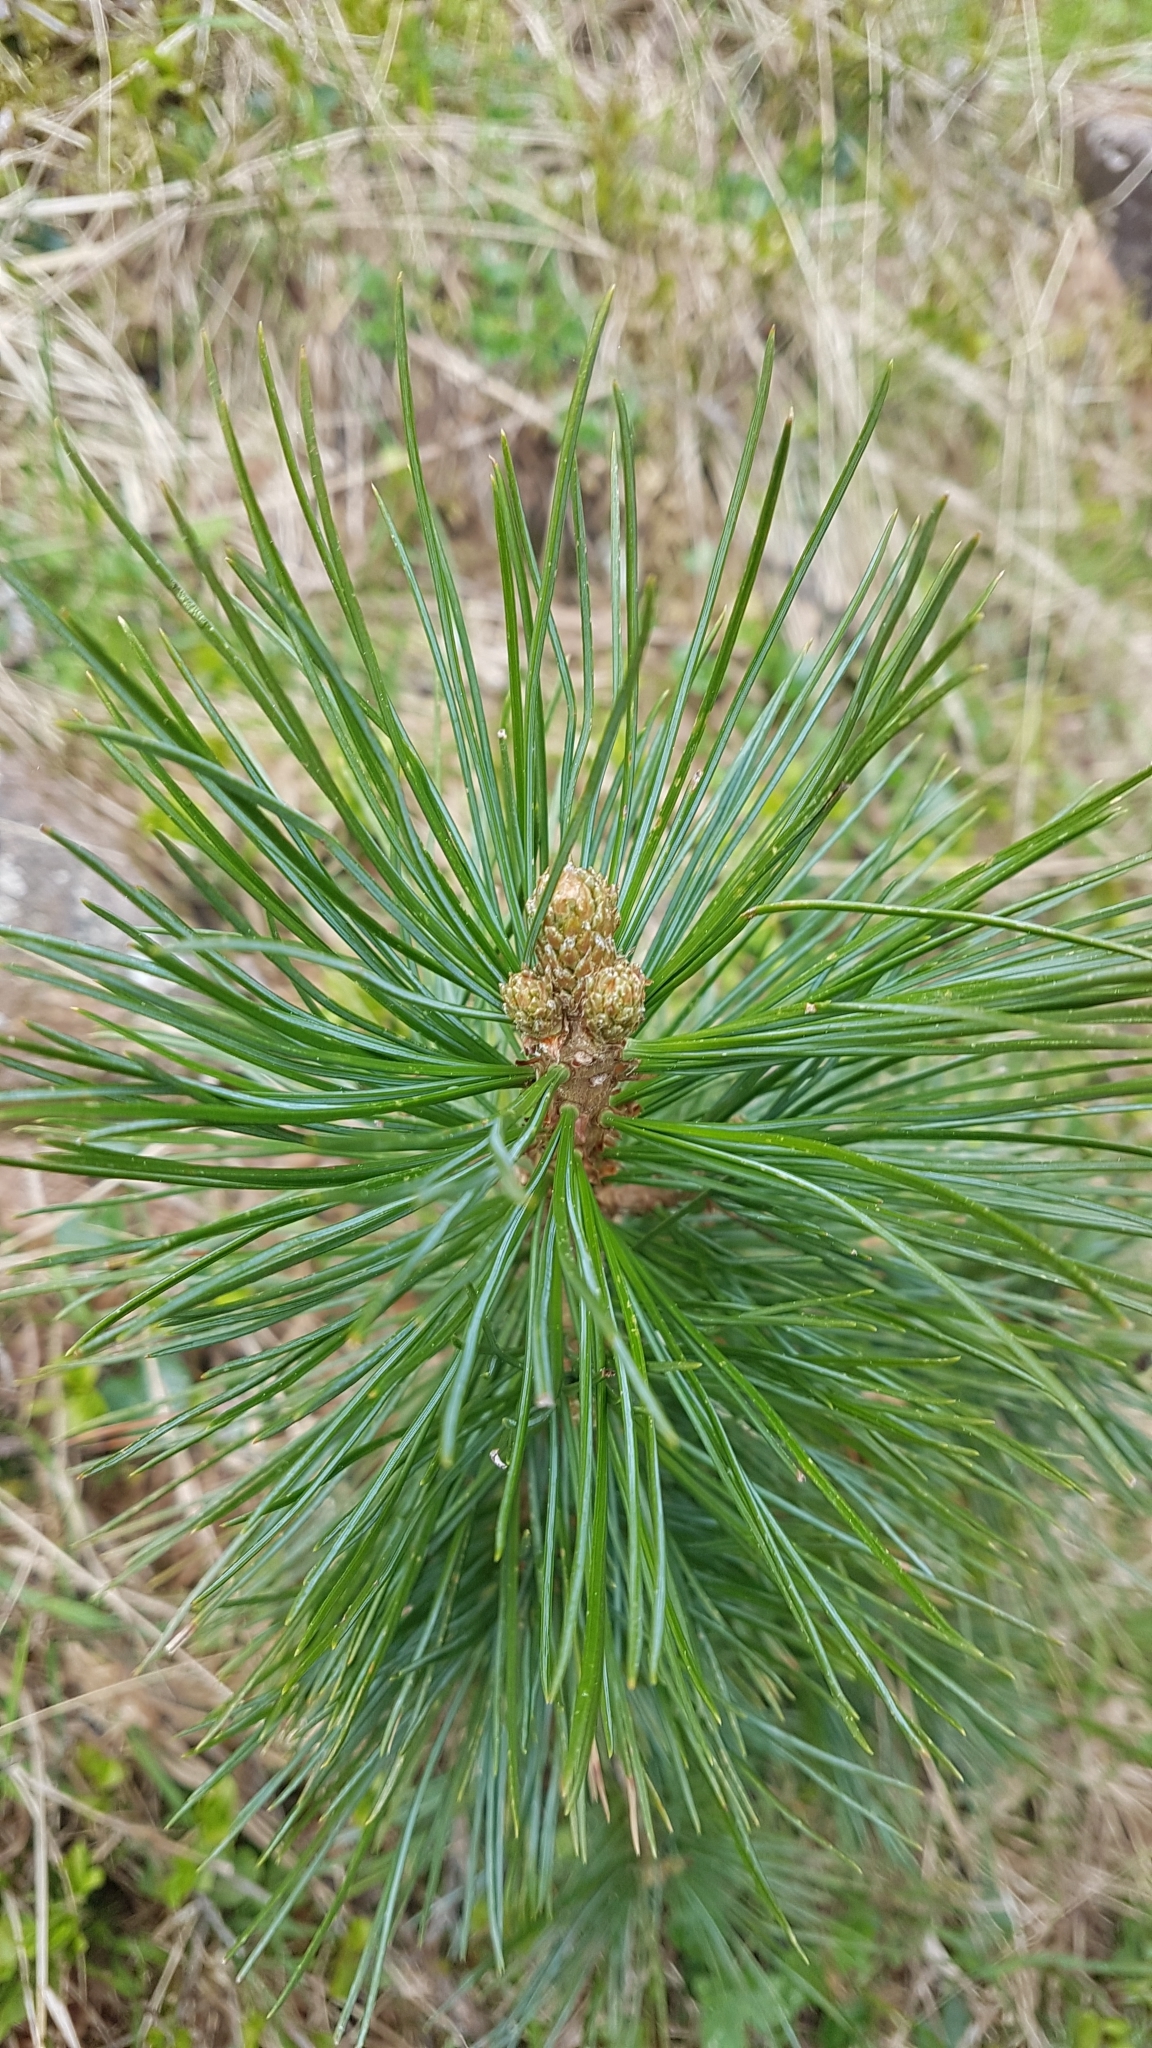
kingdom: Plantae
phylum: Tracheophyta
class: Pinopsida
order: Pinales
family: Pinaceae
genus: Pinus
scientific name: Pinus cembra
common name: Arolla pine
